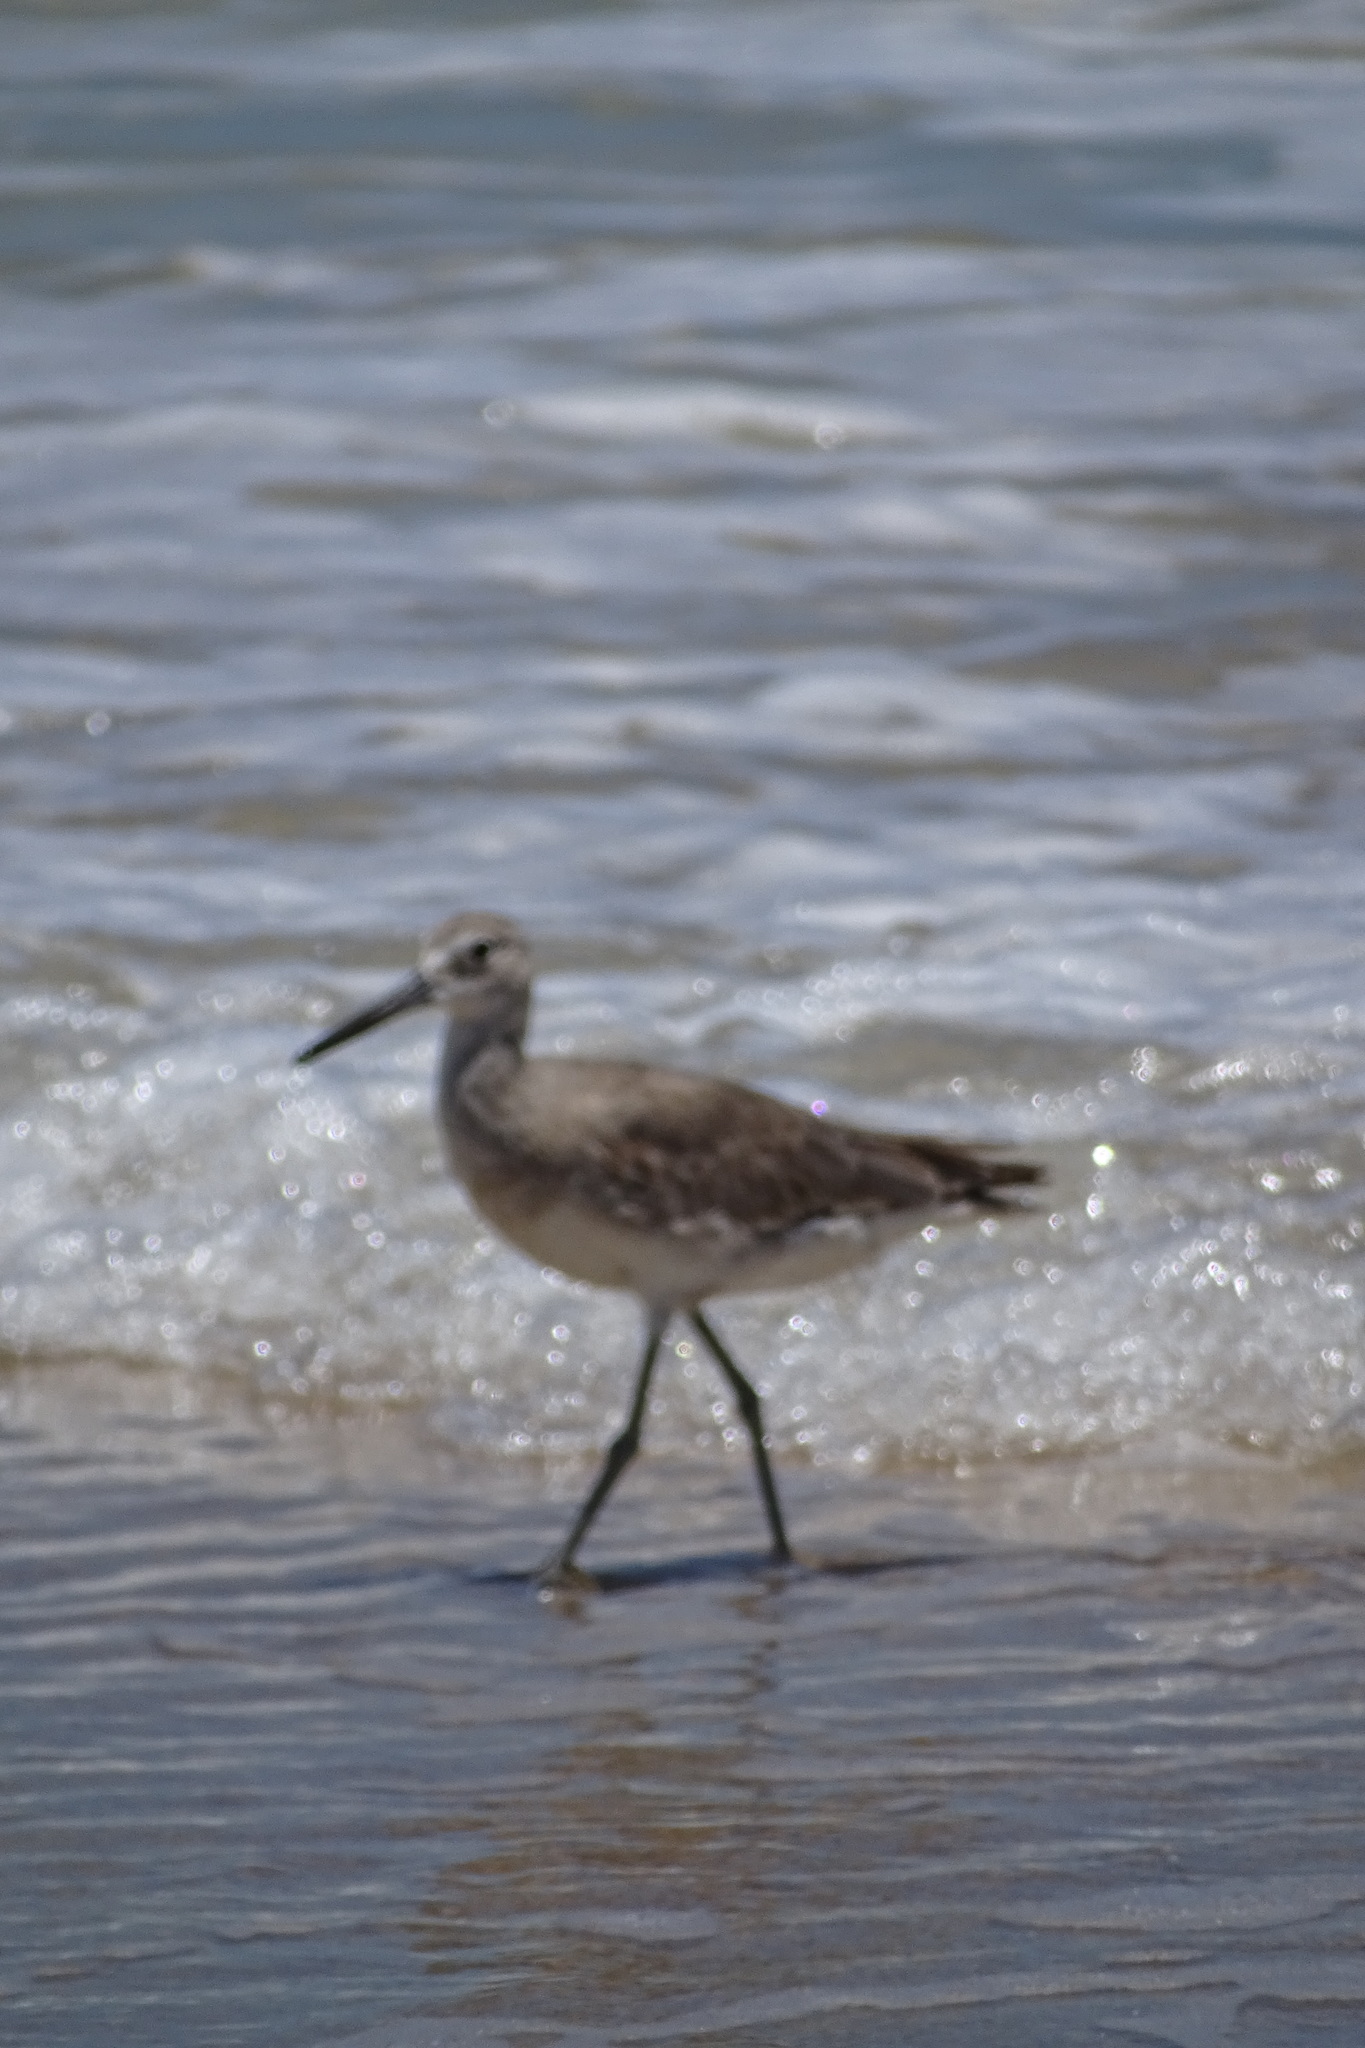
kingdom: Animalia
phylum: Chordata
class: Aves
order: Charadriiformes
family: Scolopacidae
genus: Tringa
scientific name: Tringa semipalmata
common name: Willet
